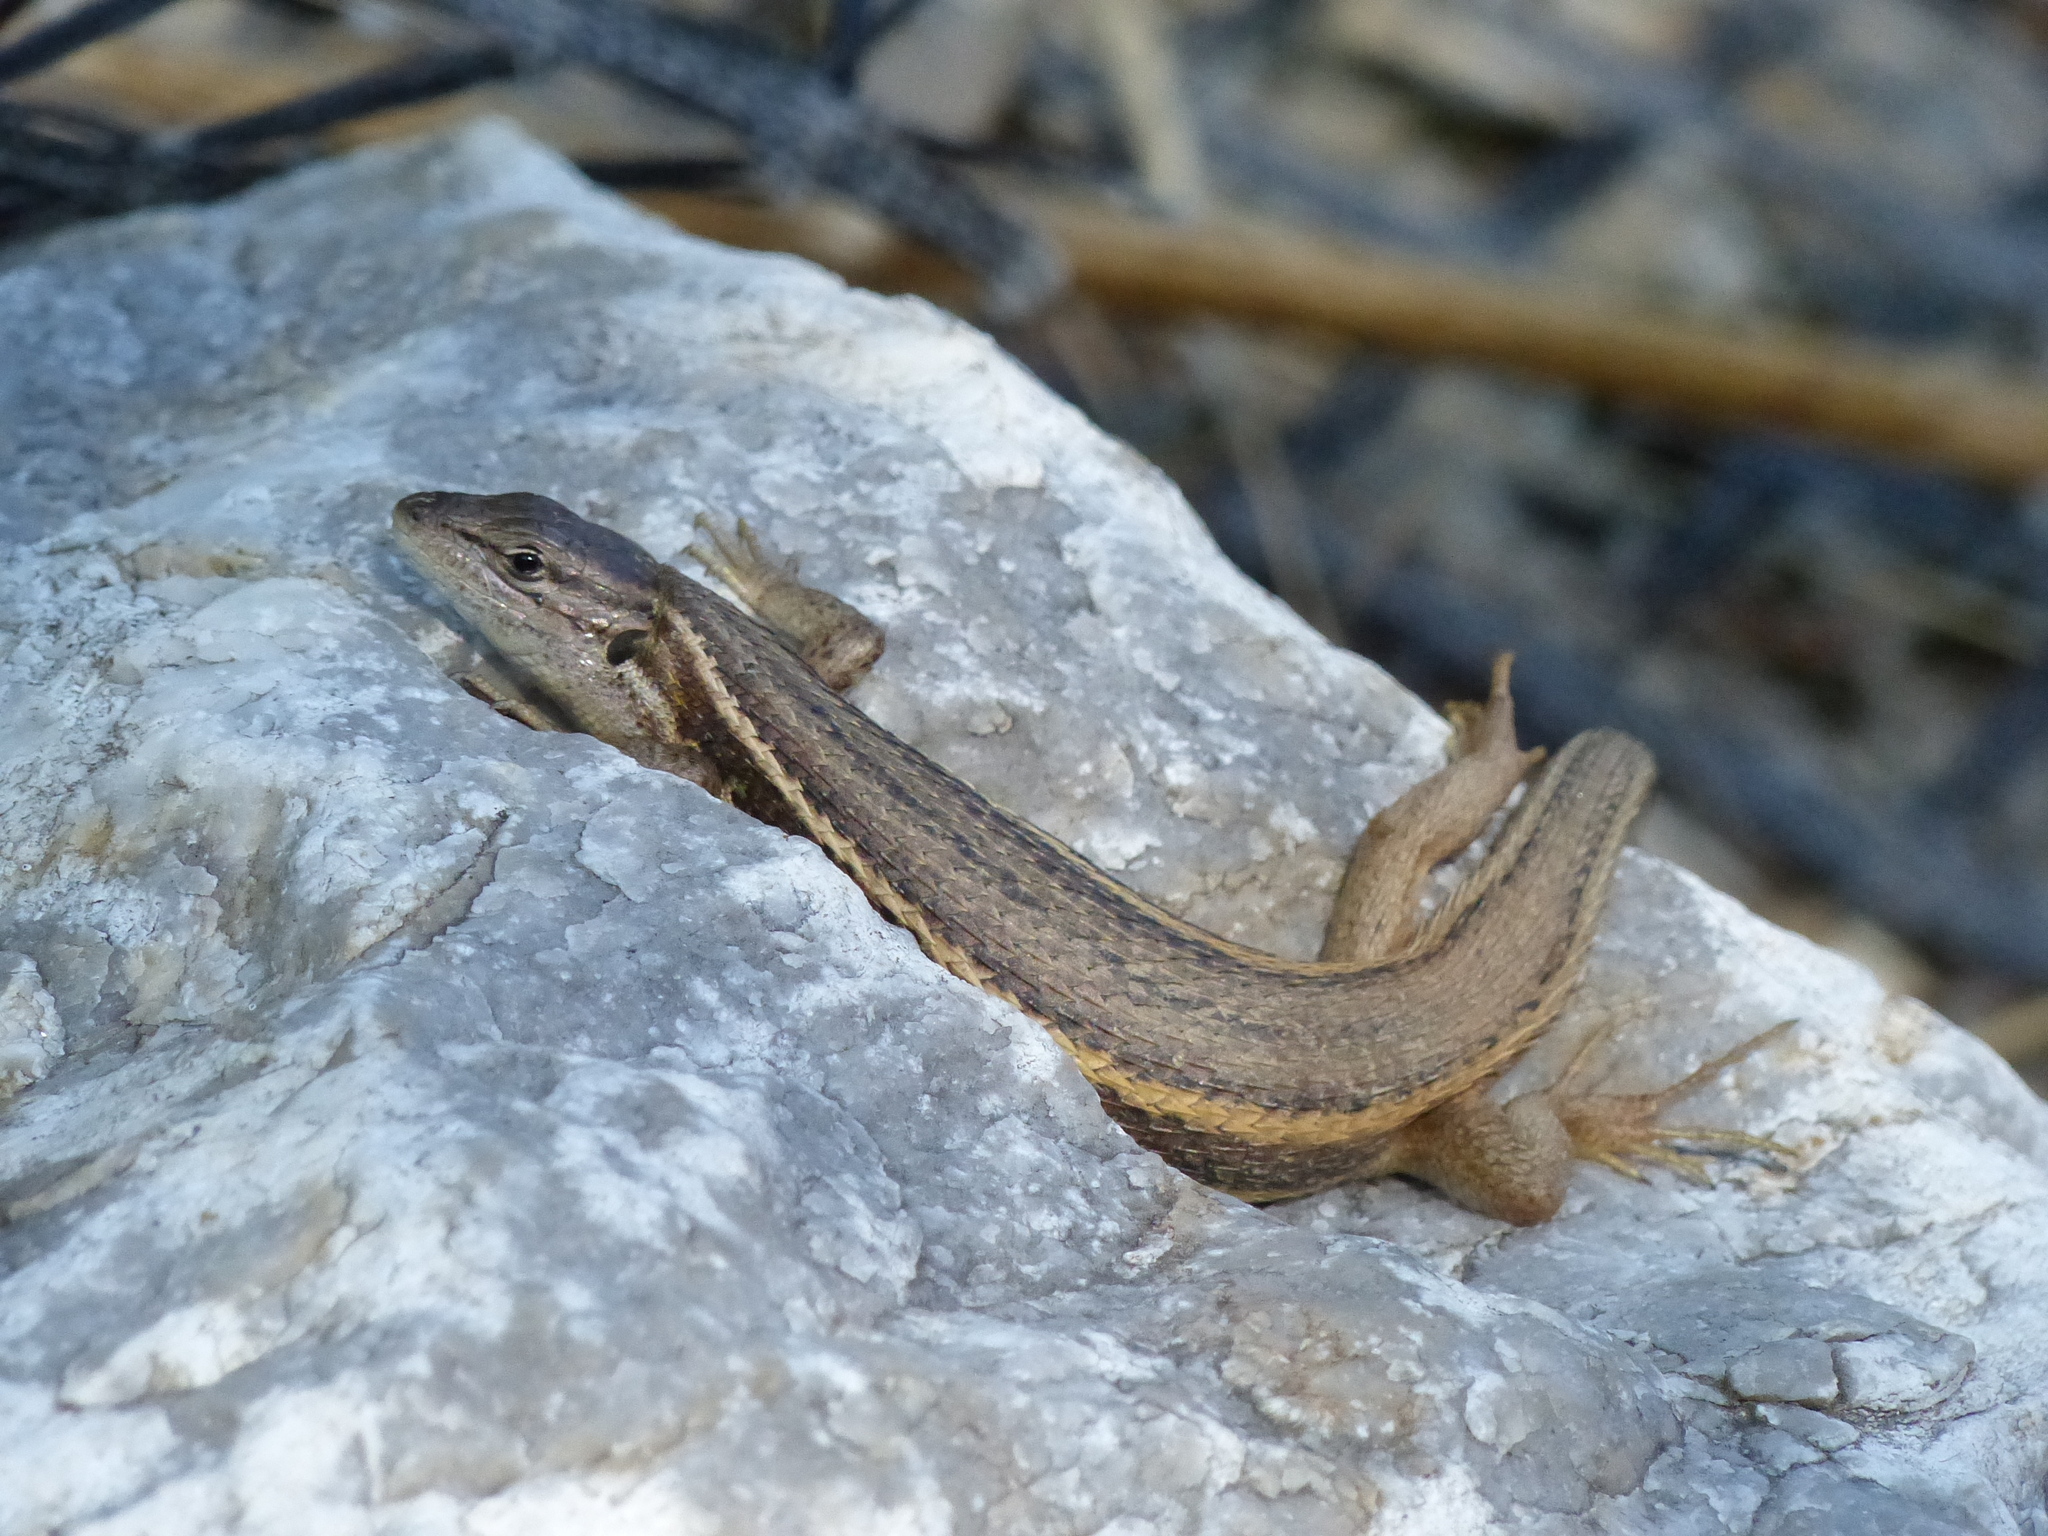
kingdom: Animalia
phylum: Chordata
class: Squamata
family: Lacertidae
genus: Psammodromus
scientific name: Psammodromus algirus
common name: Algerian psammodromus
